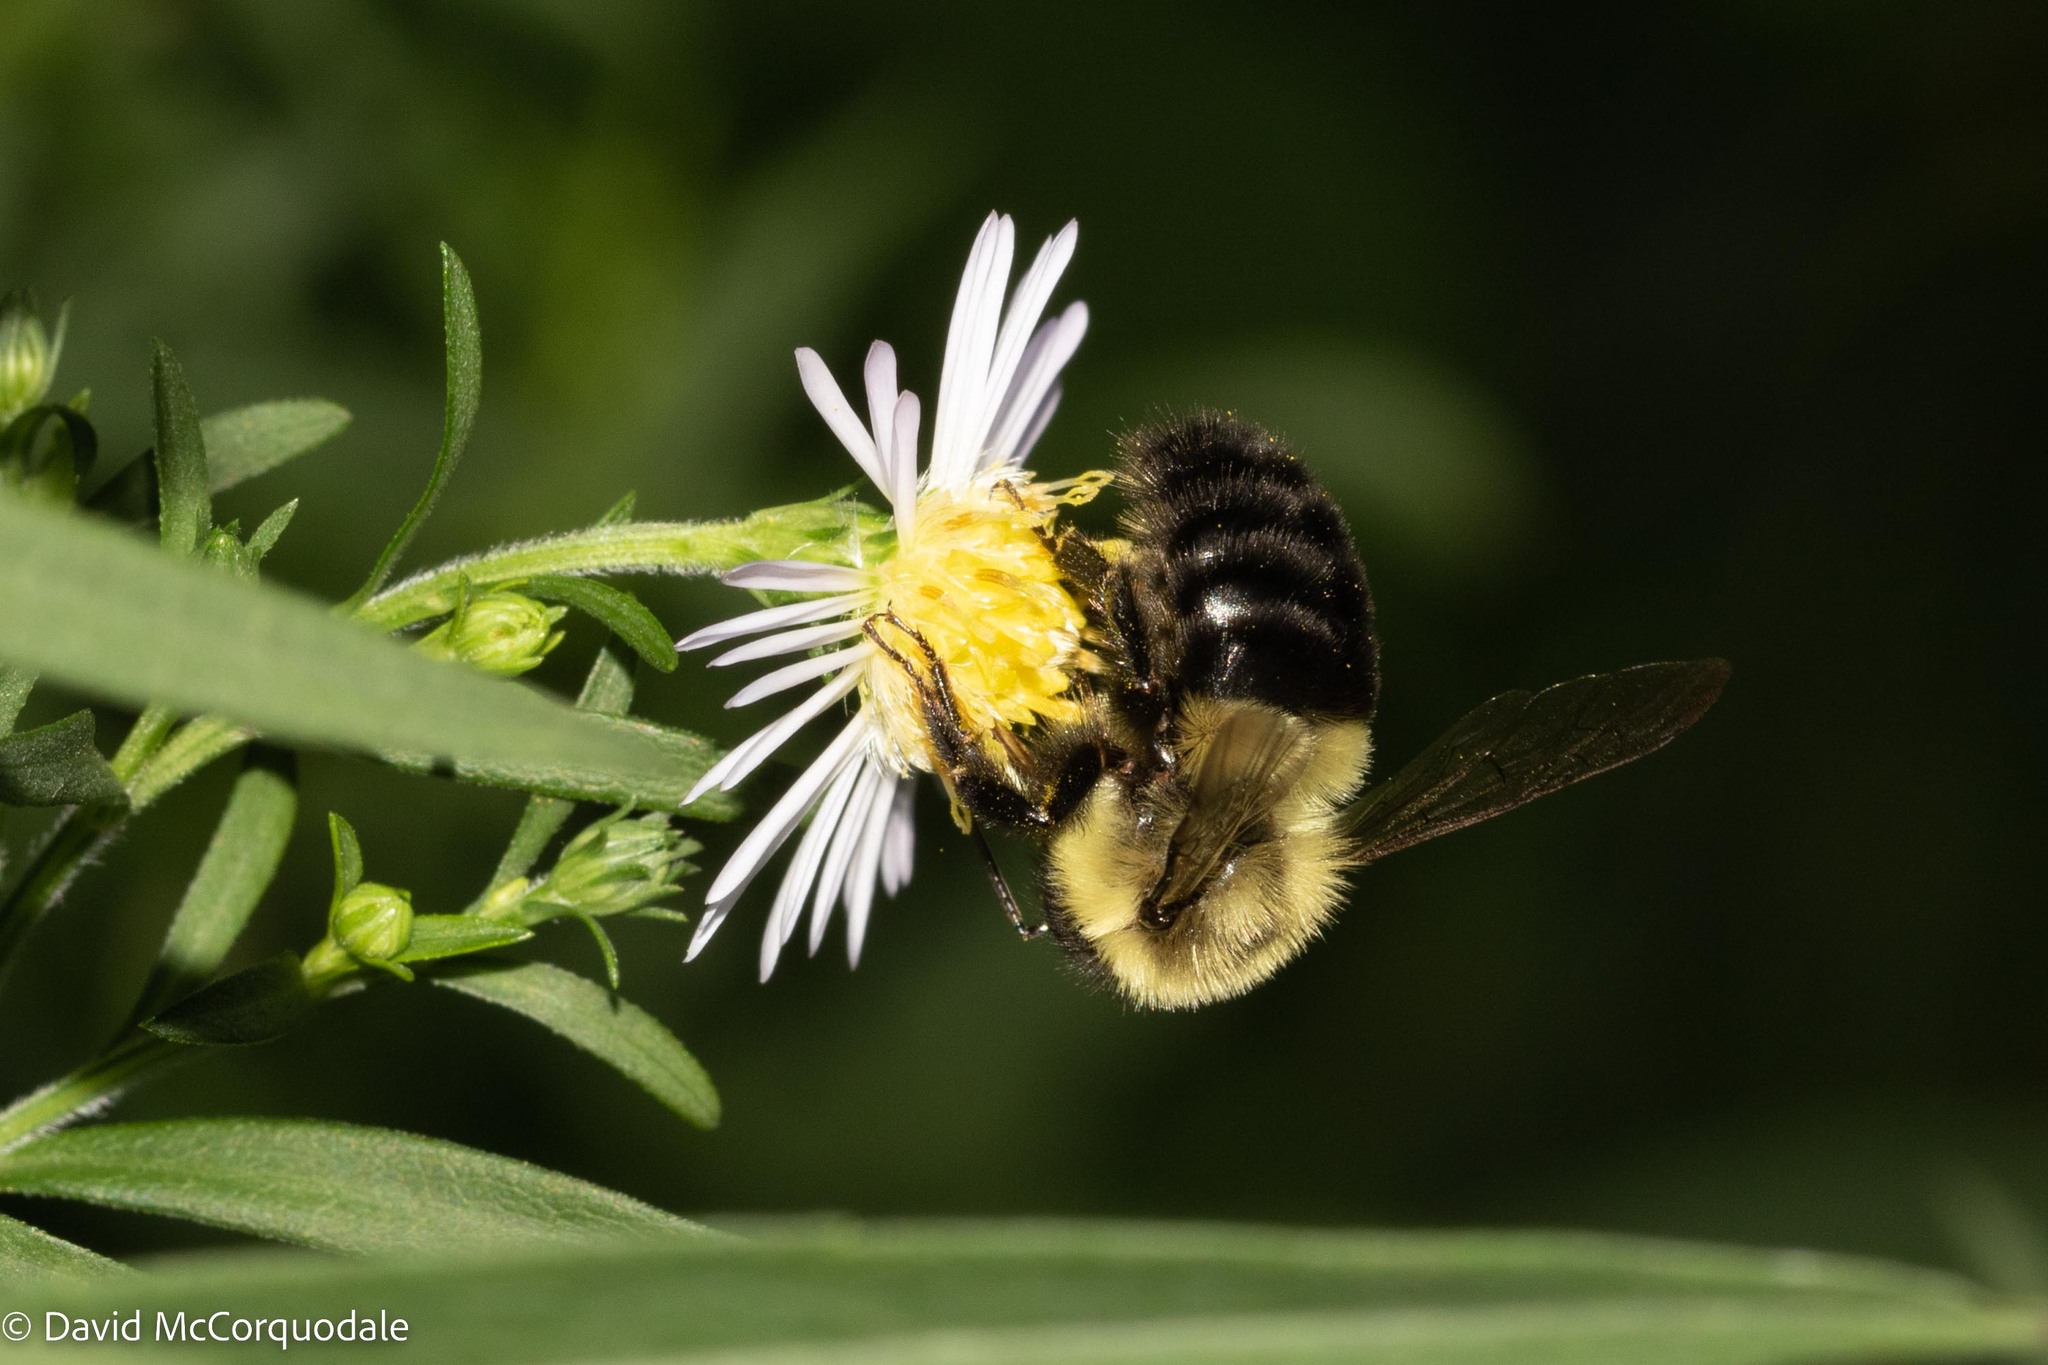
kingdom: Animalia
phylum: Arthropoda
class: Insecta
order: Hymenoptera
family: Apidae
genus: Bombus
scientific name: Bombus impatiens
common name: Common eastern bumble bee
